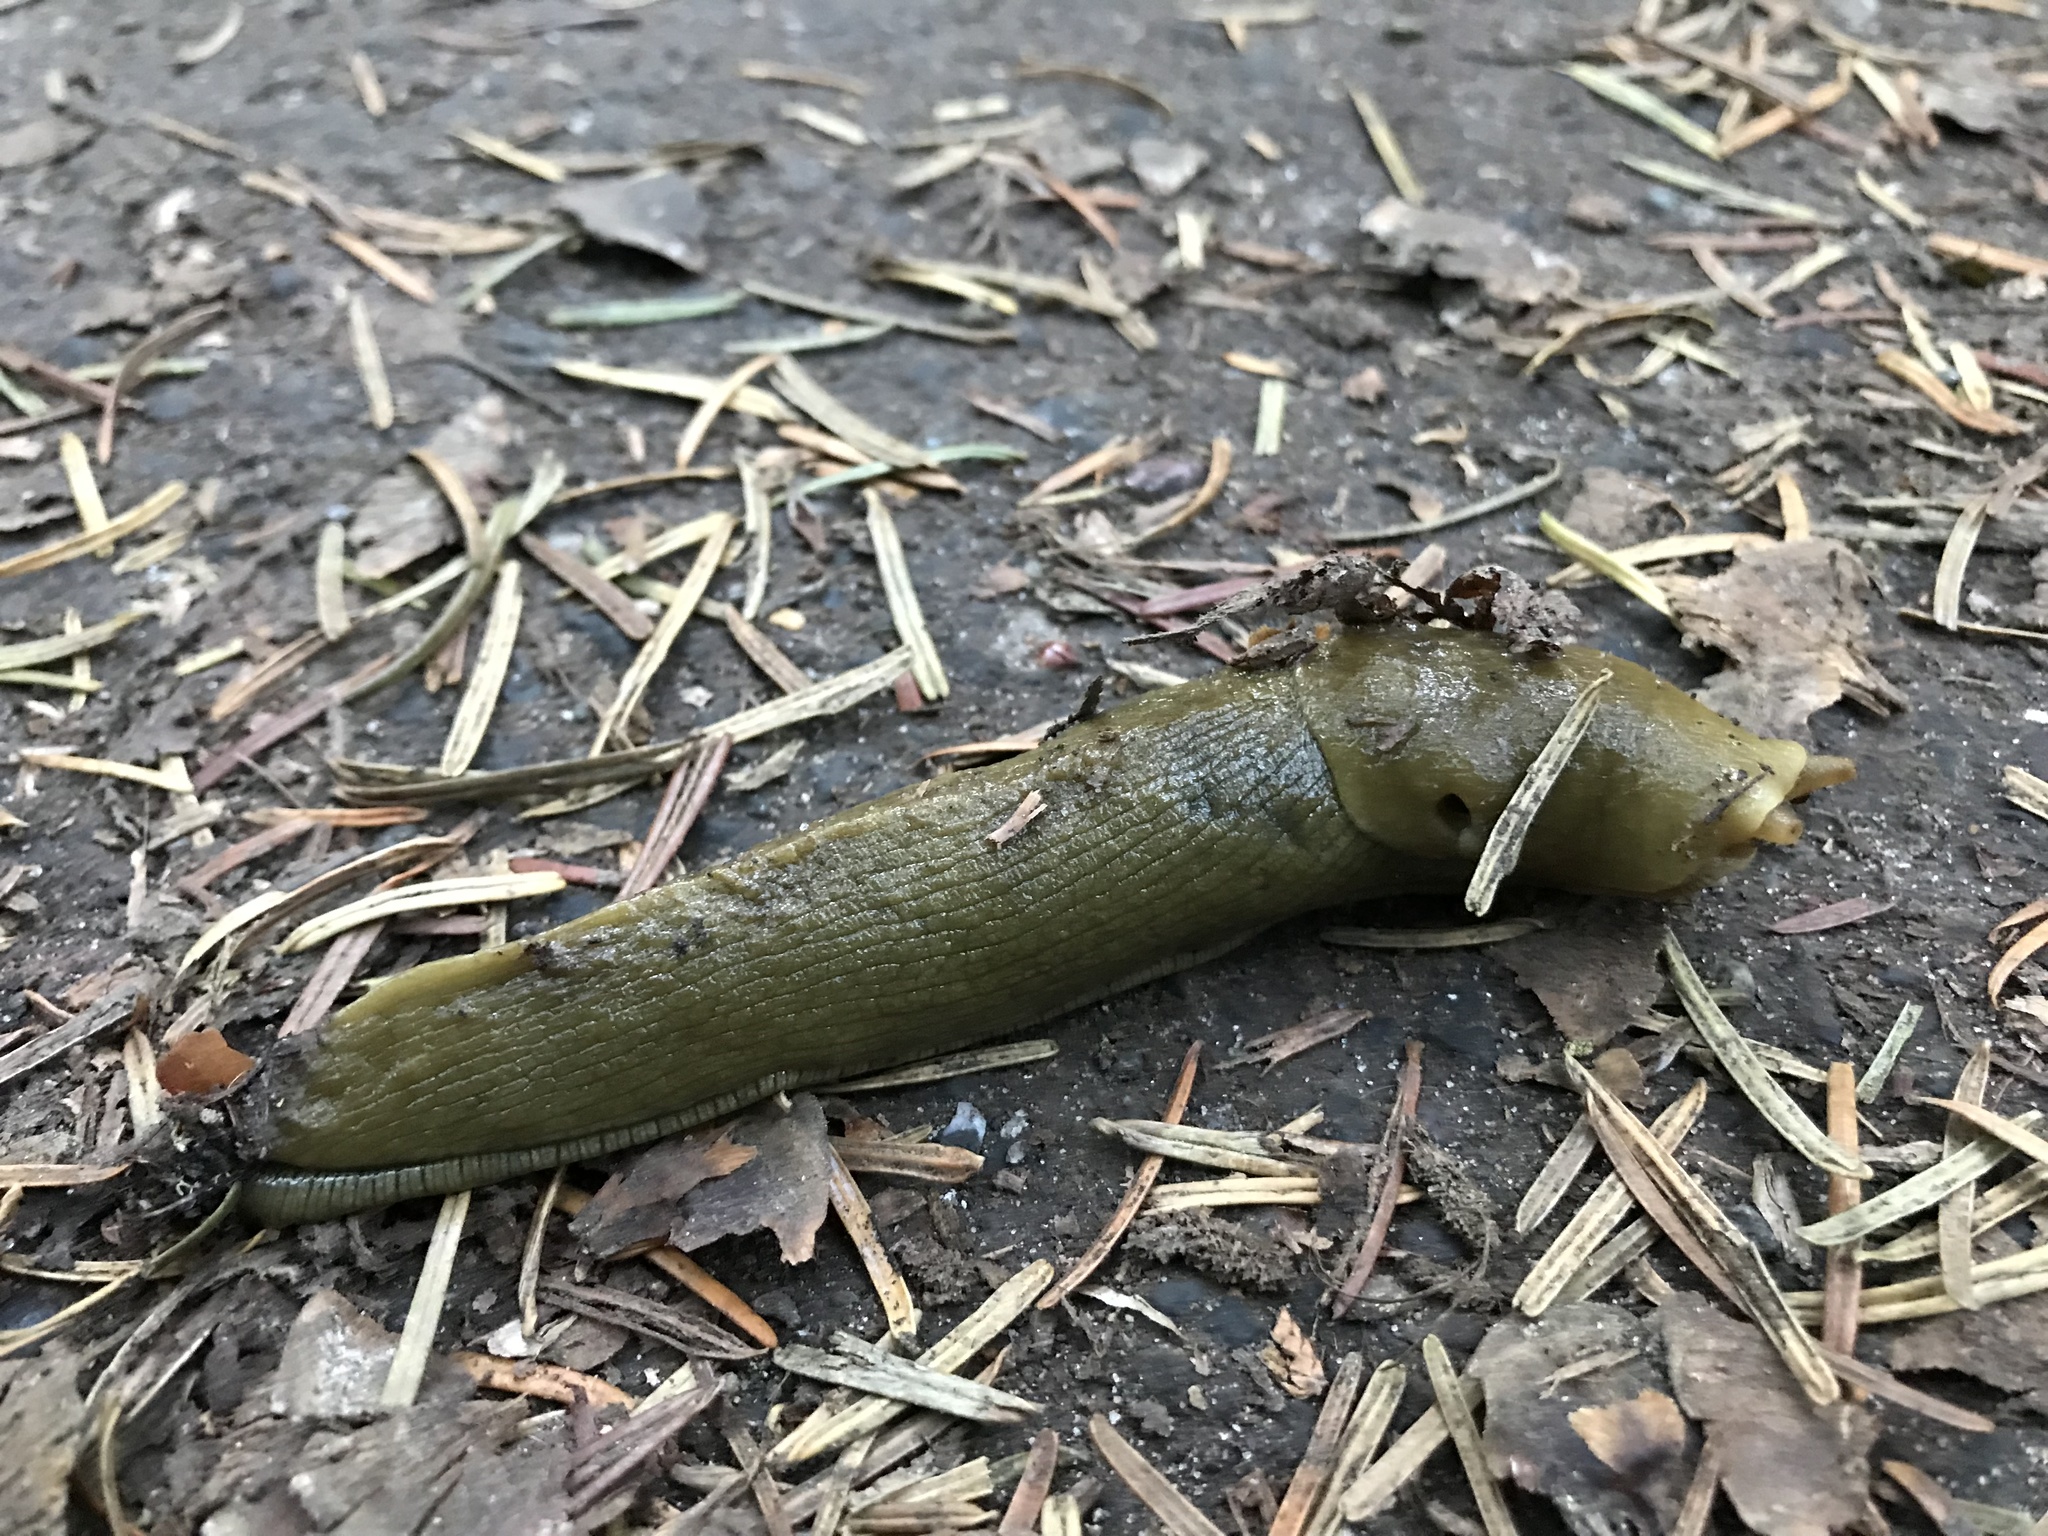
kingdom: Animalia
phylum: Mollusca
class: Gastropoda
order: Stylommatophora
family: Ariolimacidae
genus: Ariolimax
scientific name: Ariolimax columbianus
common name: Pacific banana slug
